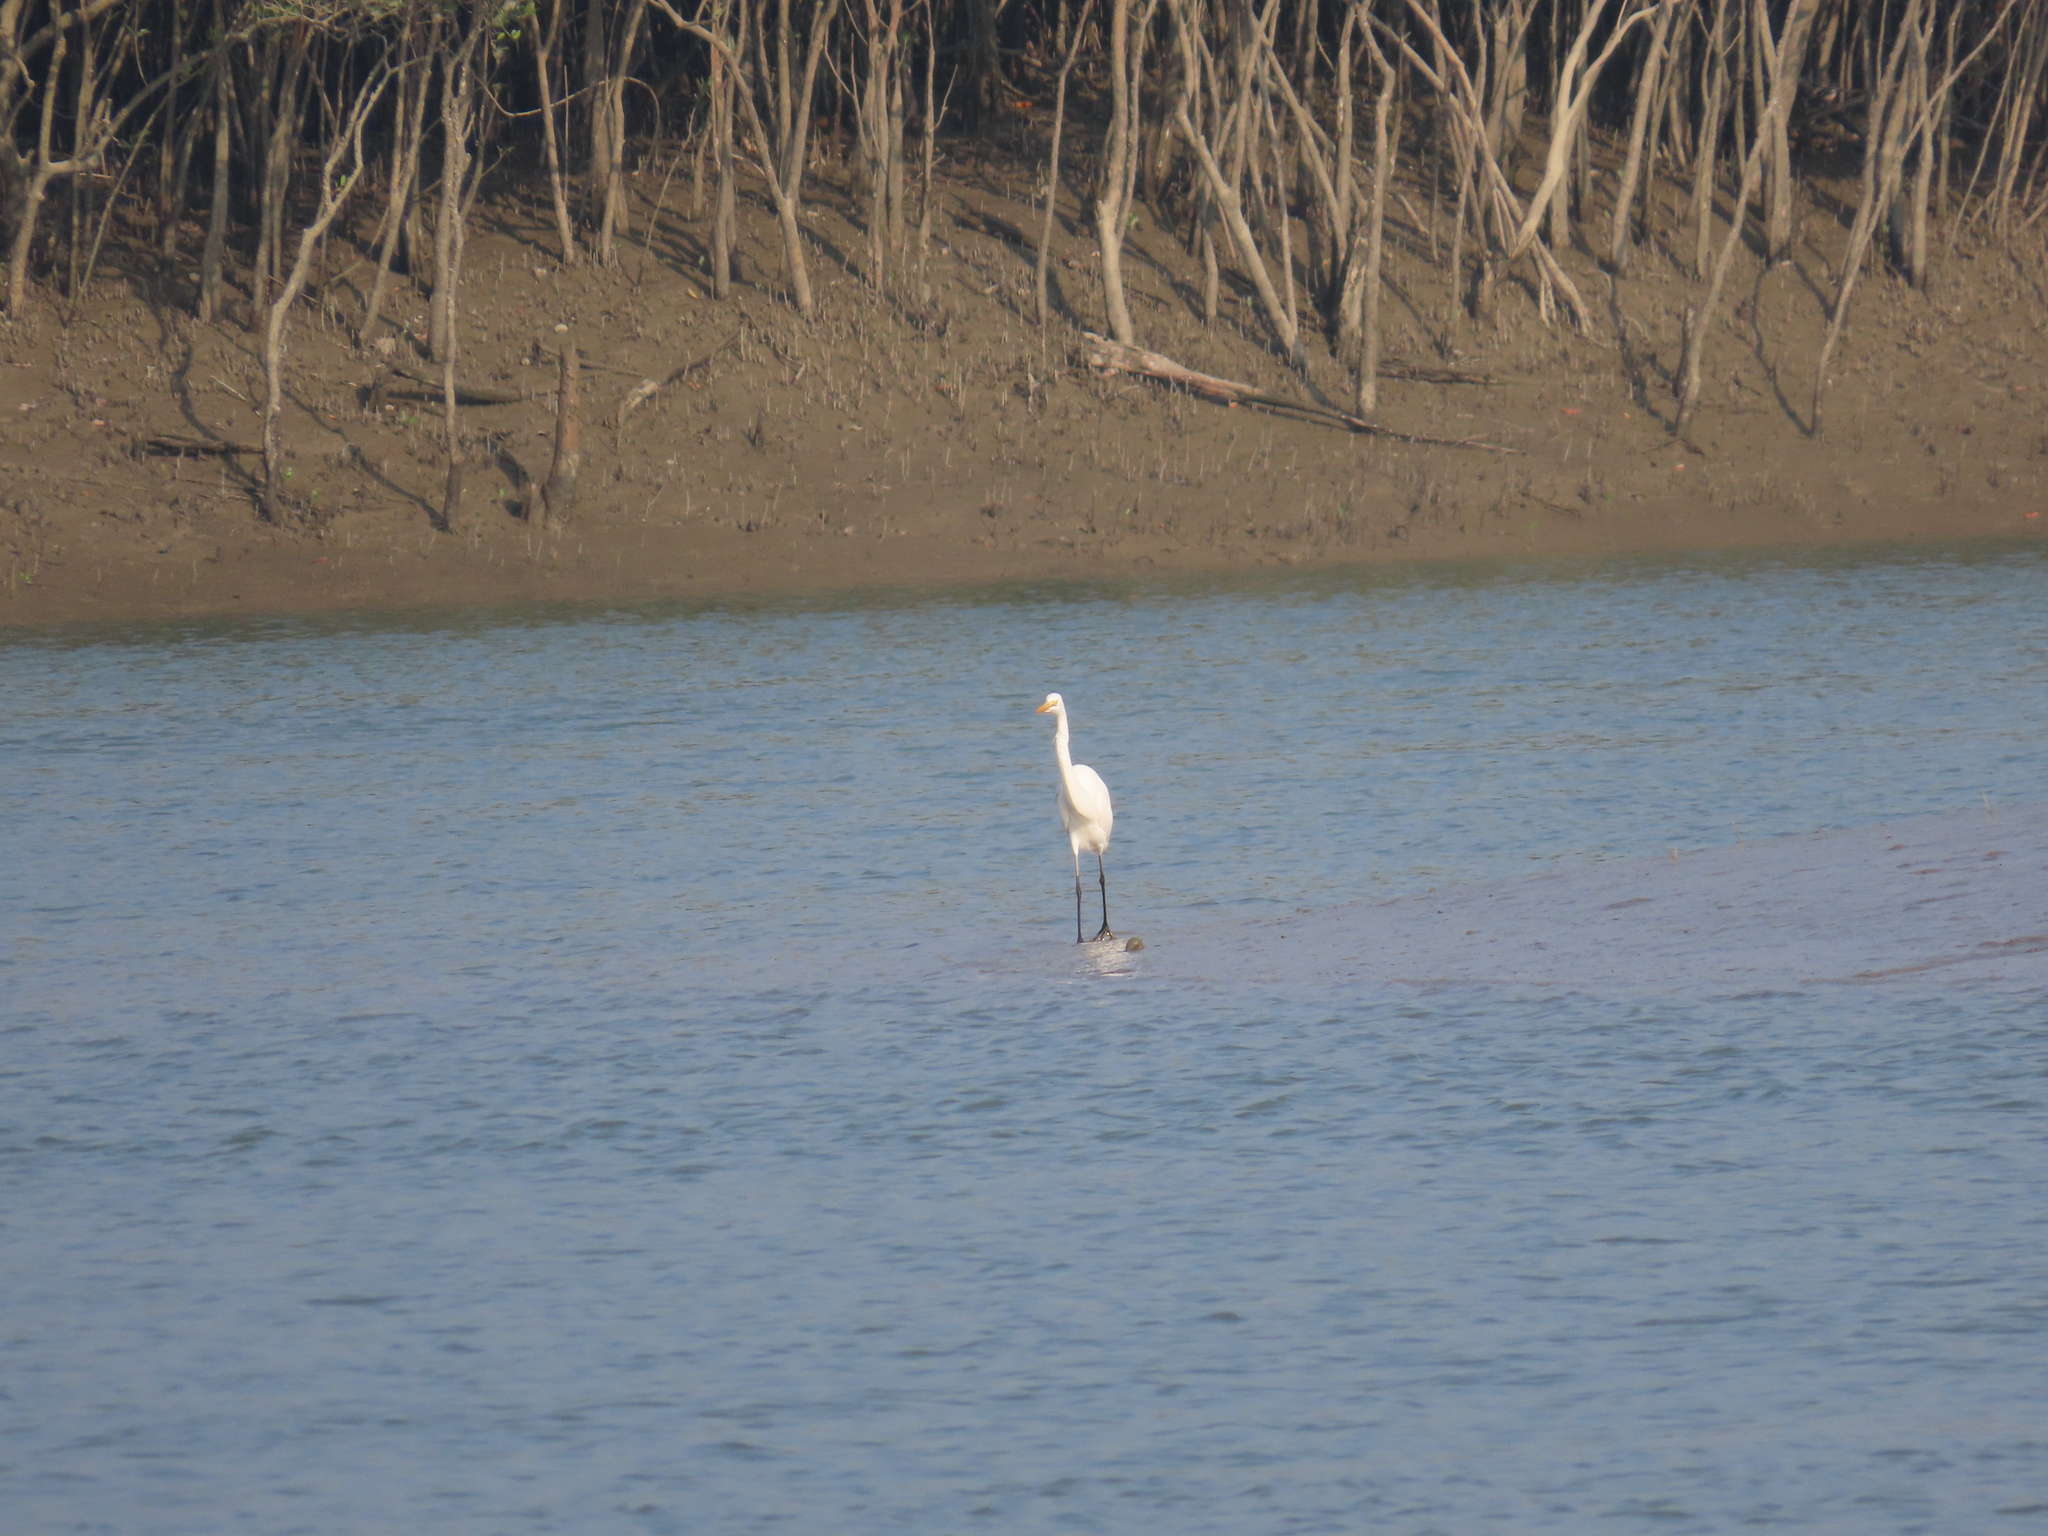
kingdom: Animalia
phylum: Chordata
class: Aves
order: Pelecaniformes
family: Ardeidae
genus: Ardea
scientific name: Ardea alba
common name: Great egret
